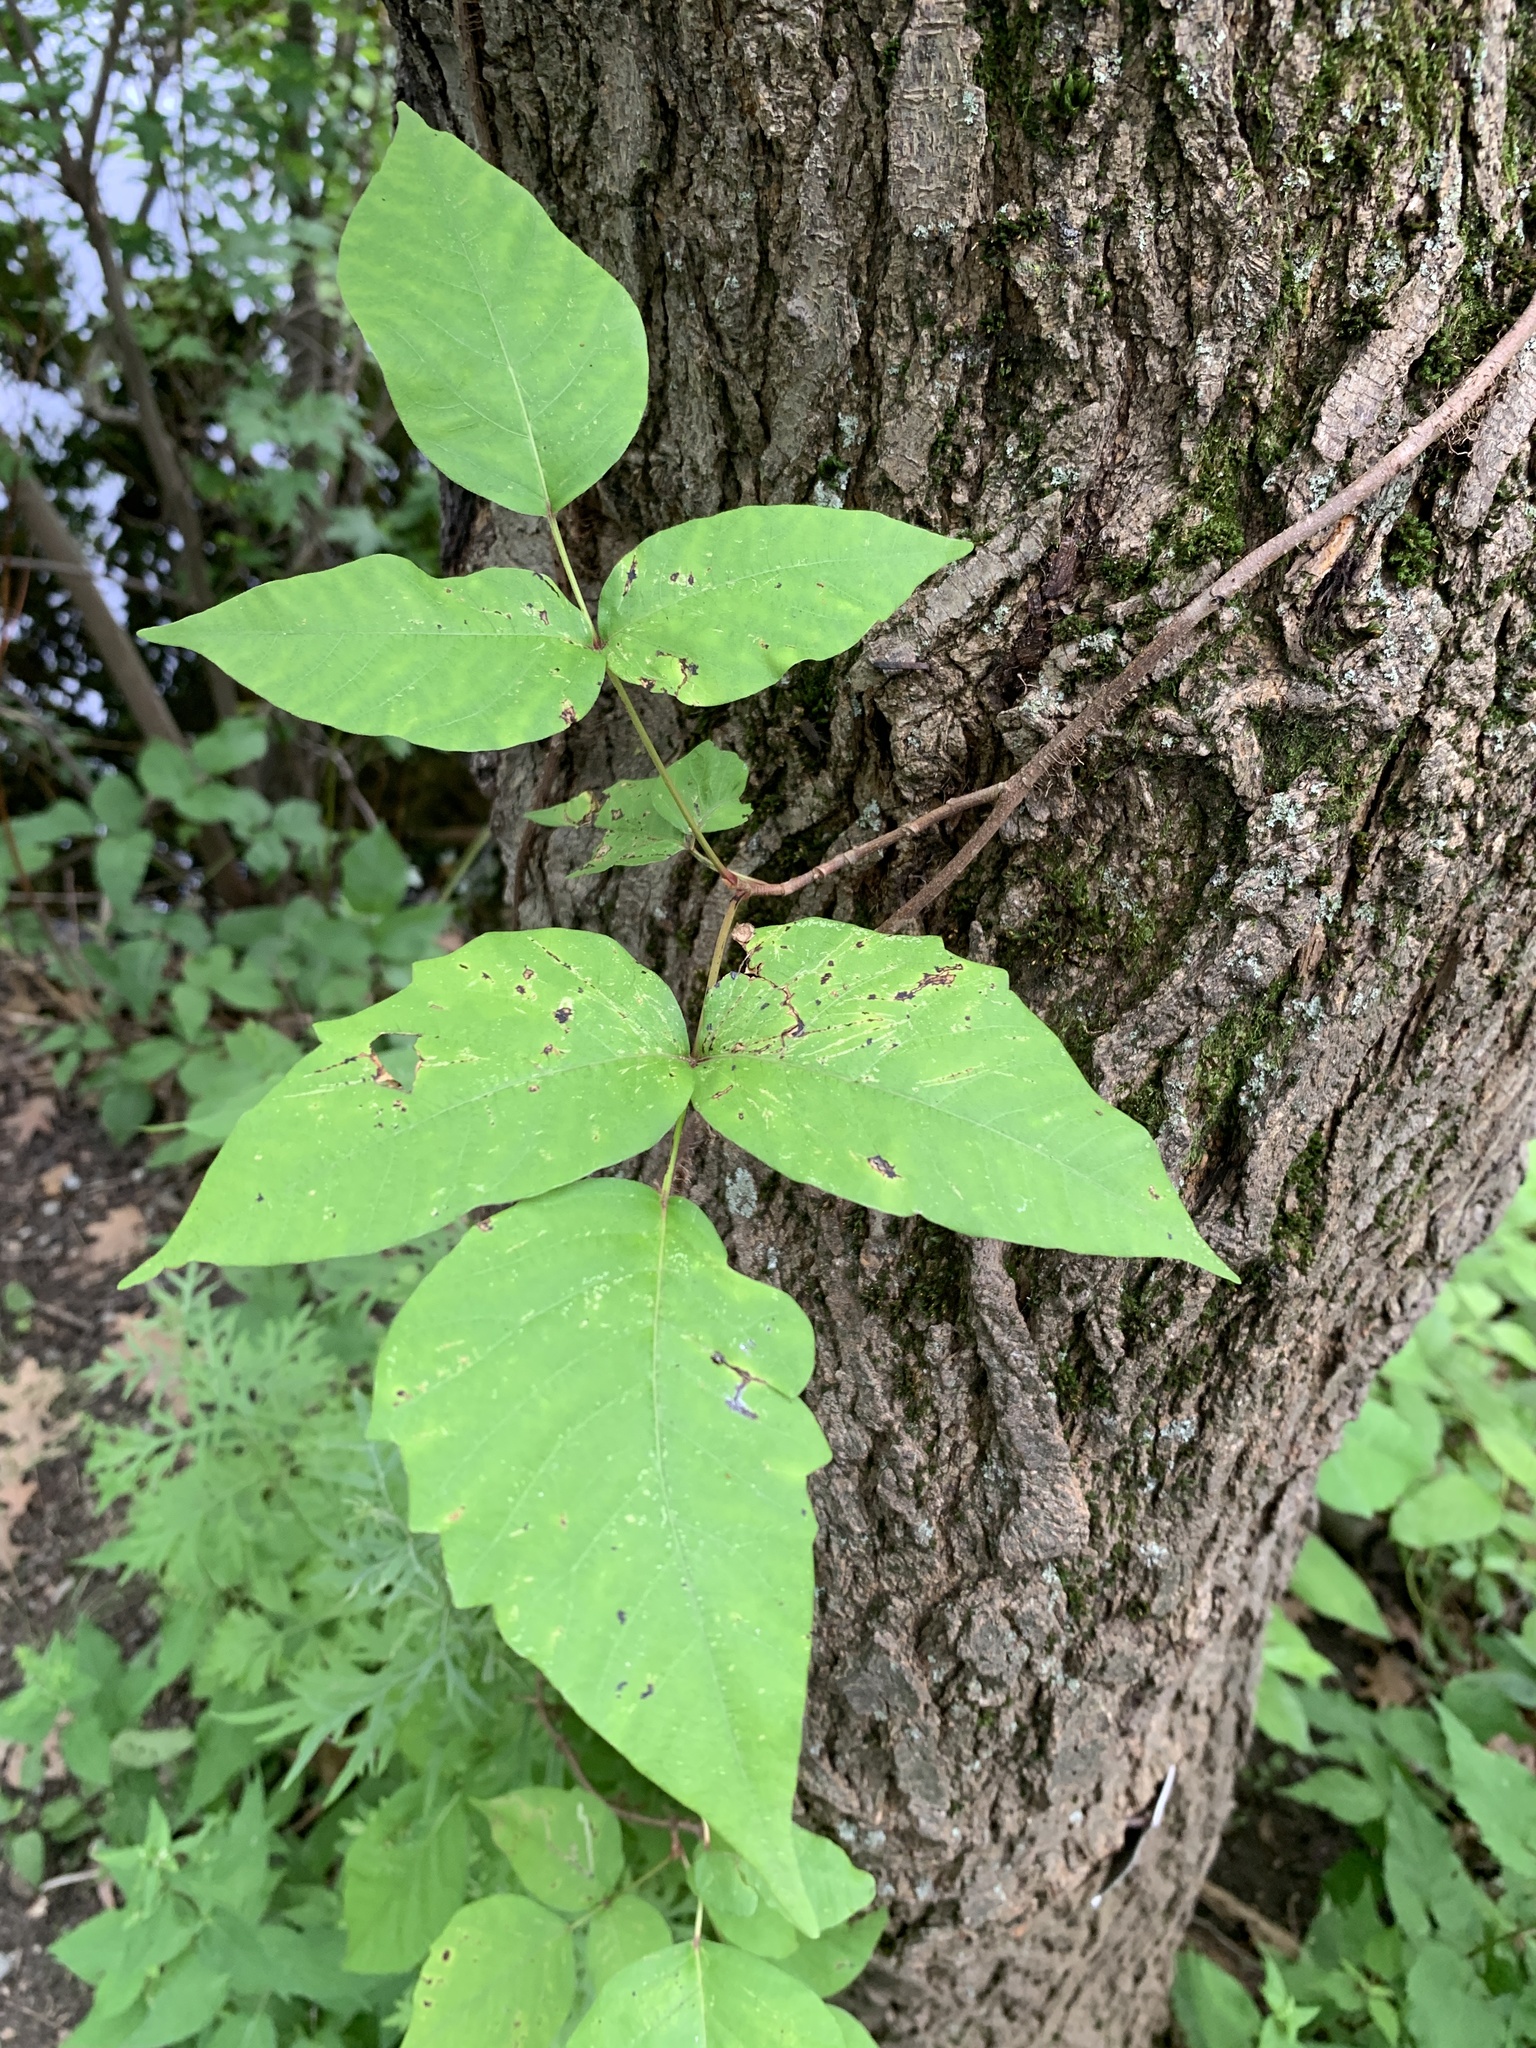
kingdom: Plantae
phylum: Tracheophyta
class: Magnoliopsida
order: Sapindales
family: Anacardiaceae
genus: Toxicodendron
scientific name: Toxicodendron radicans
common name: Poison ivy
